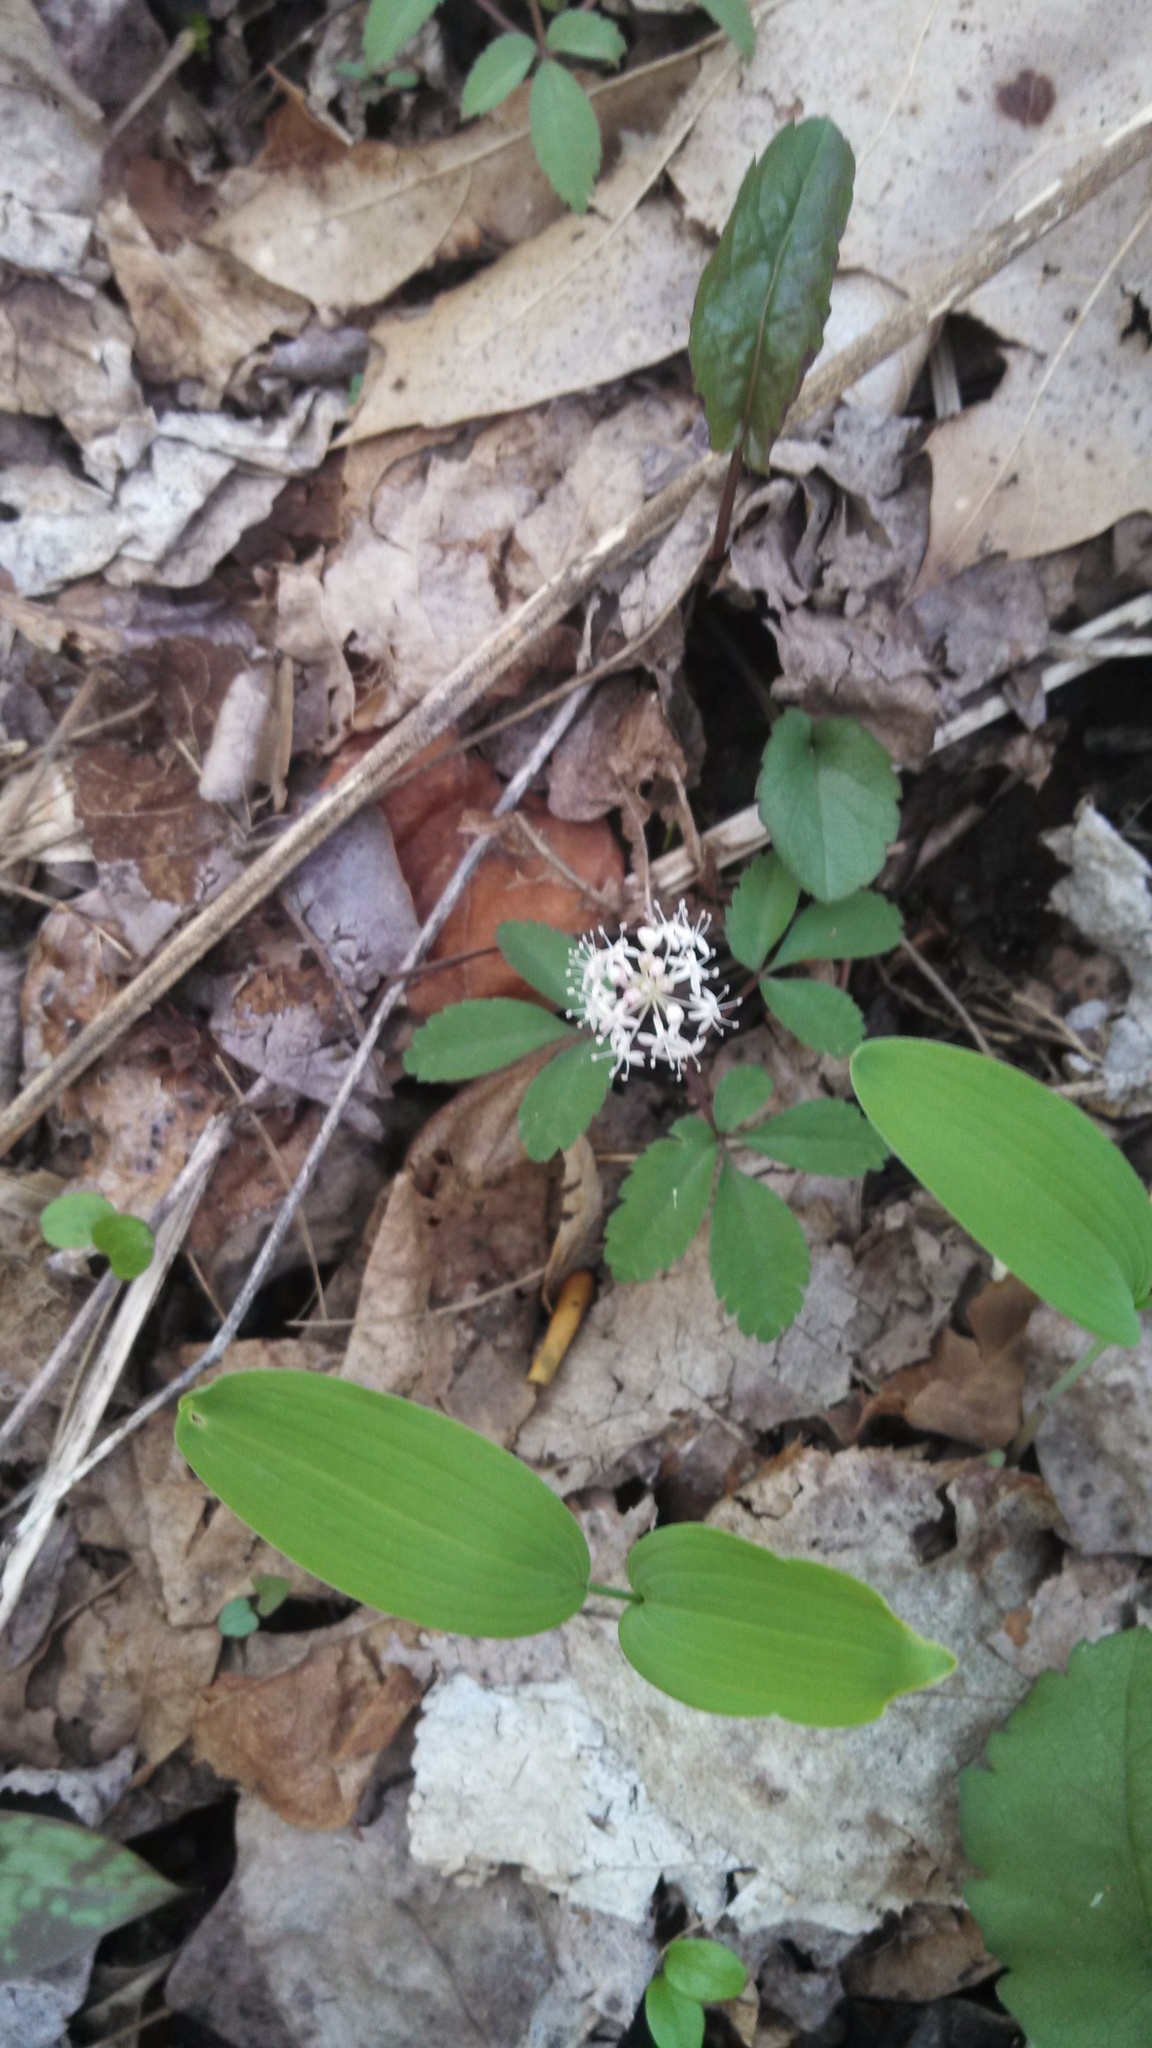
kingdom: Plantae
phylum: Tracheophyta
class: Magnoliopsida
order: Apiales
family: Araliaceae
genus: Panax
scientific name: Panax trifolius
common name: Dwarf ginseng
